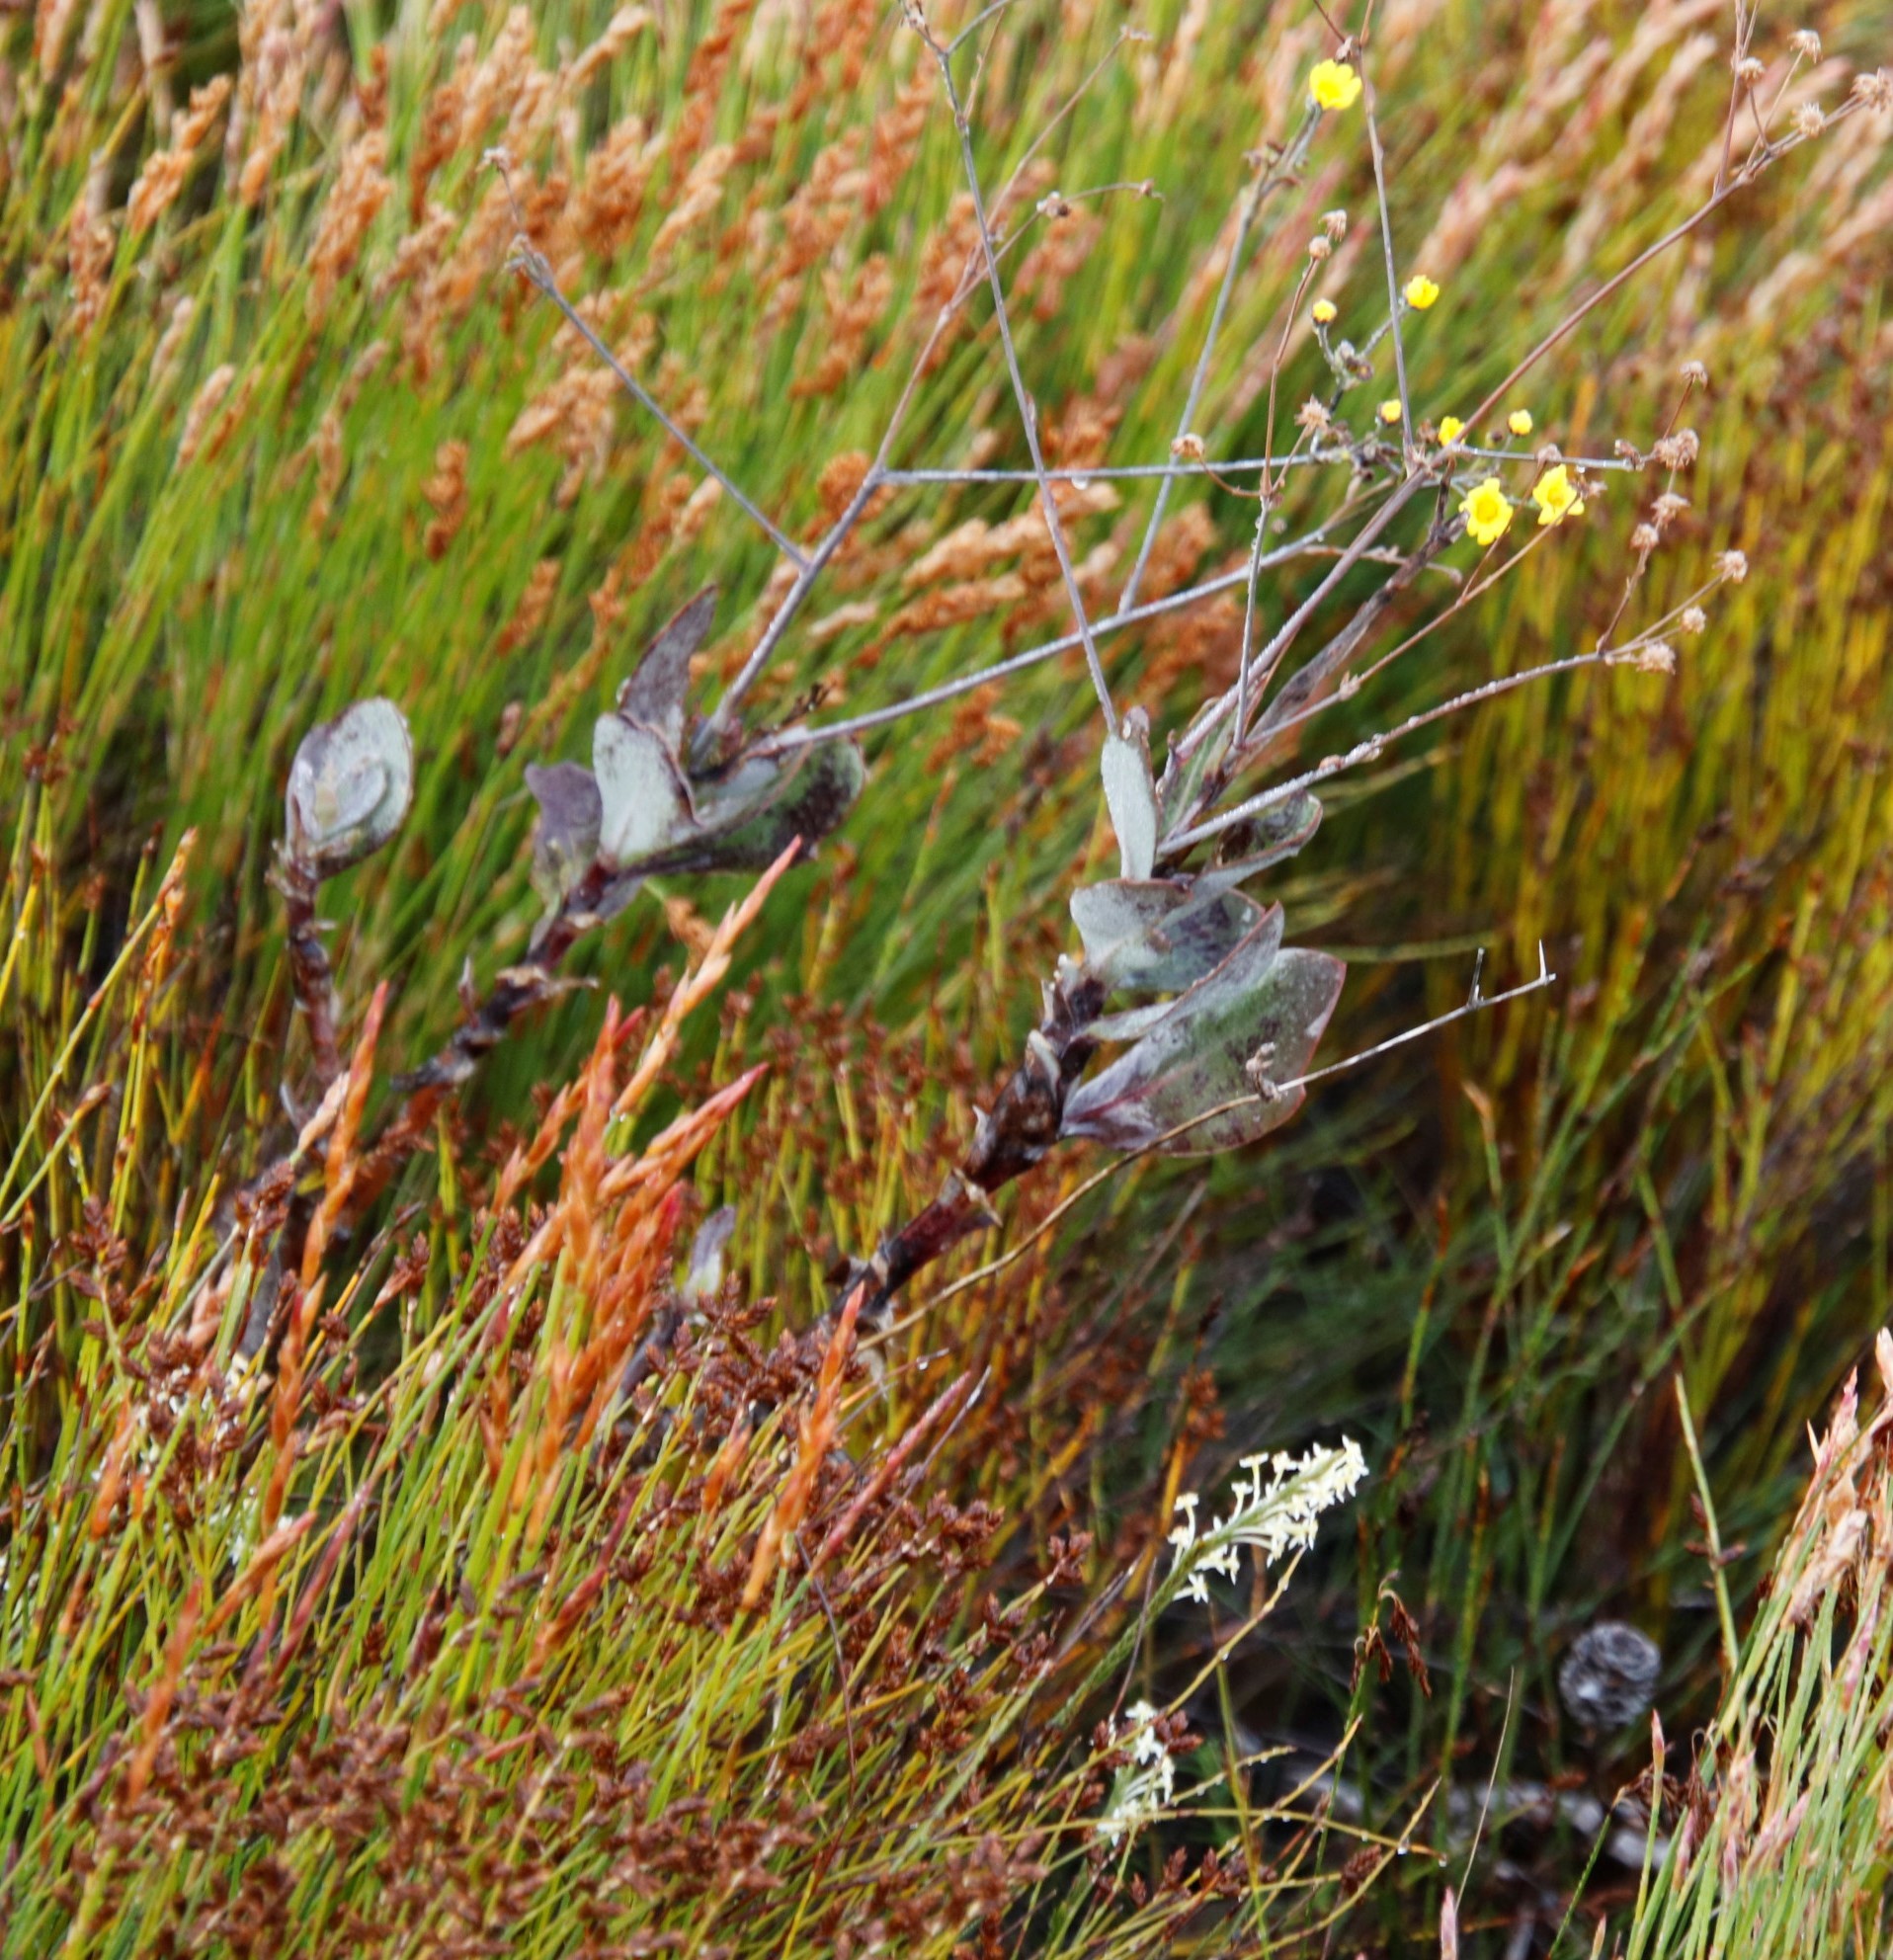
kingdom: Plantae
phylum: Tracheophyta
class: Magnoliopsida
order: Asterales
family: Asteraceae
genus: Othonna
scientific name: Othonna quinquedentata
